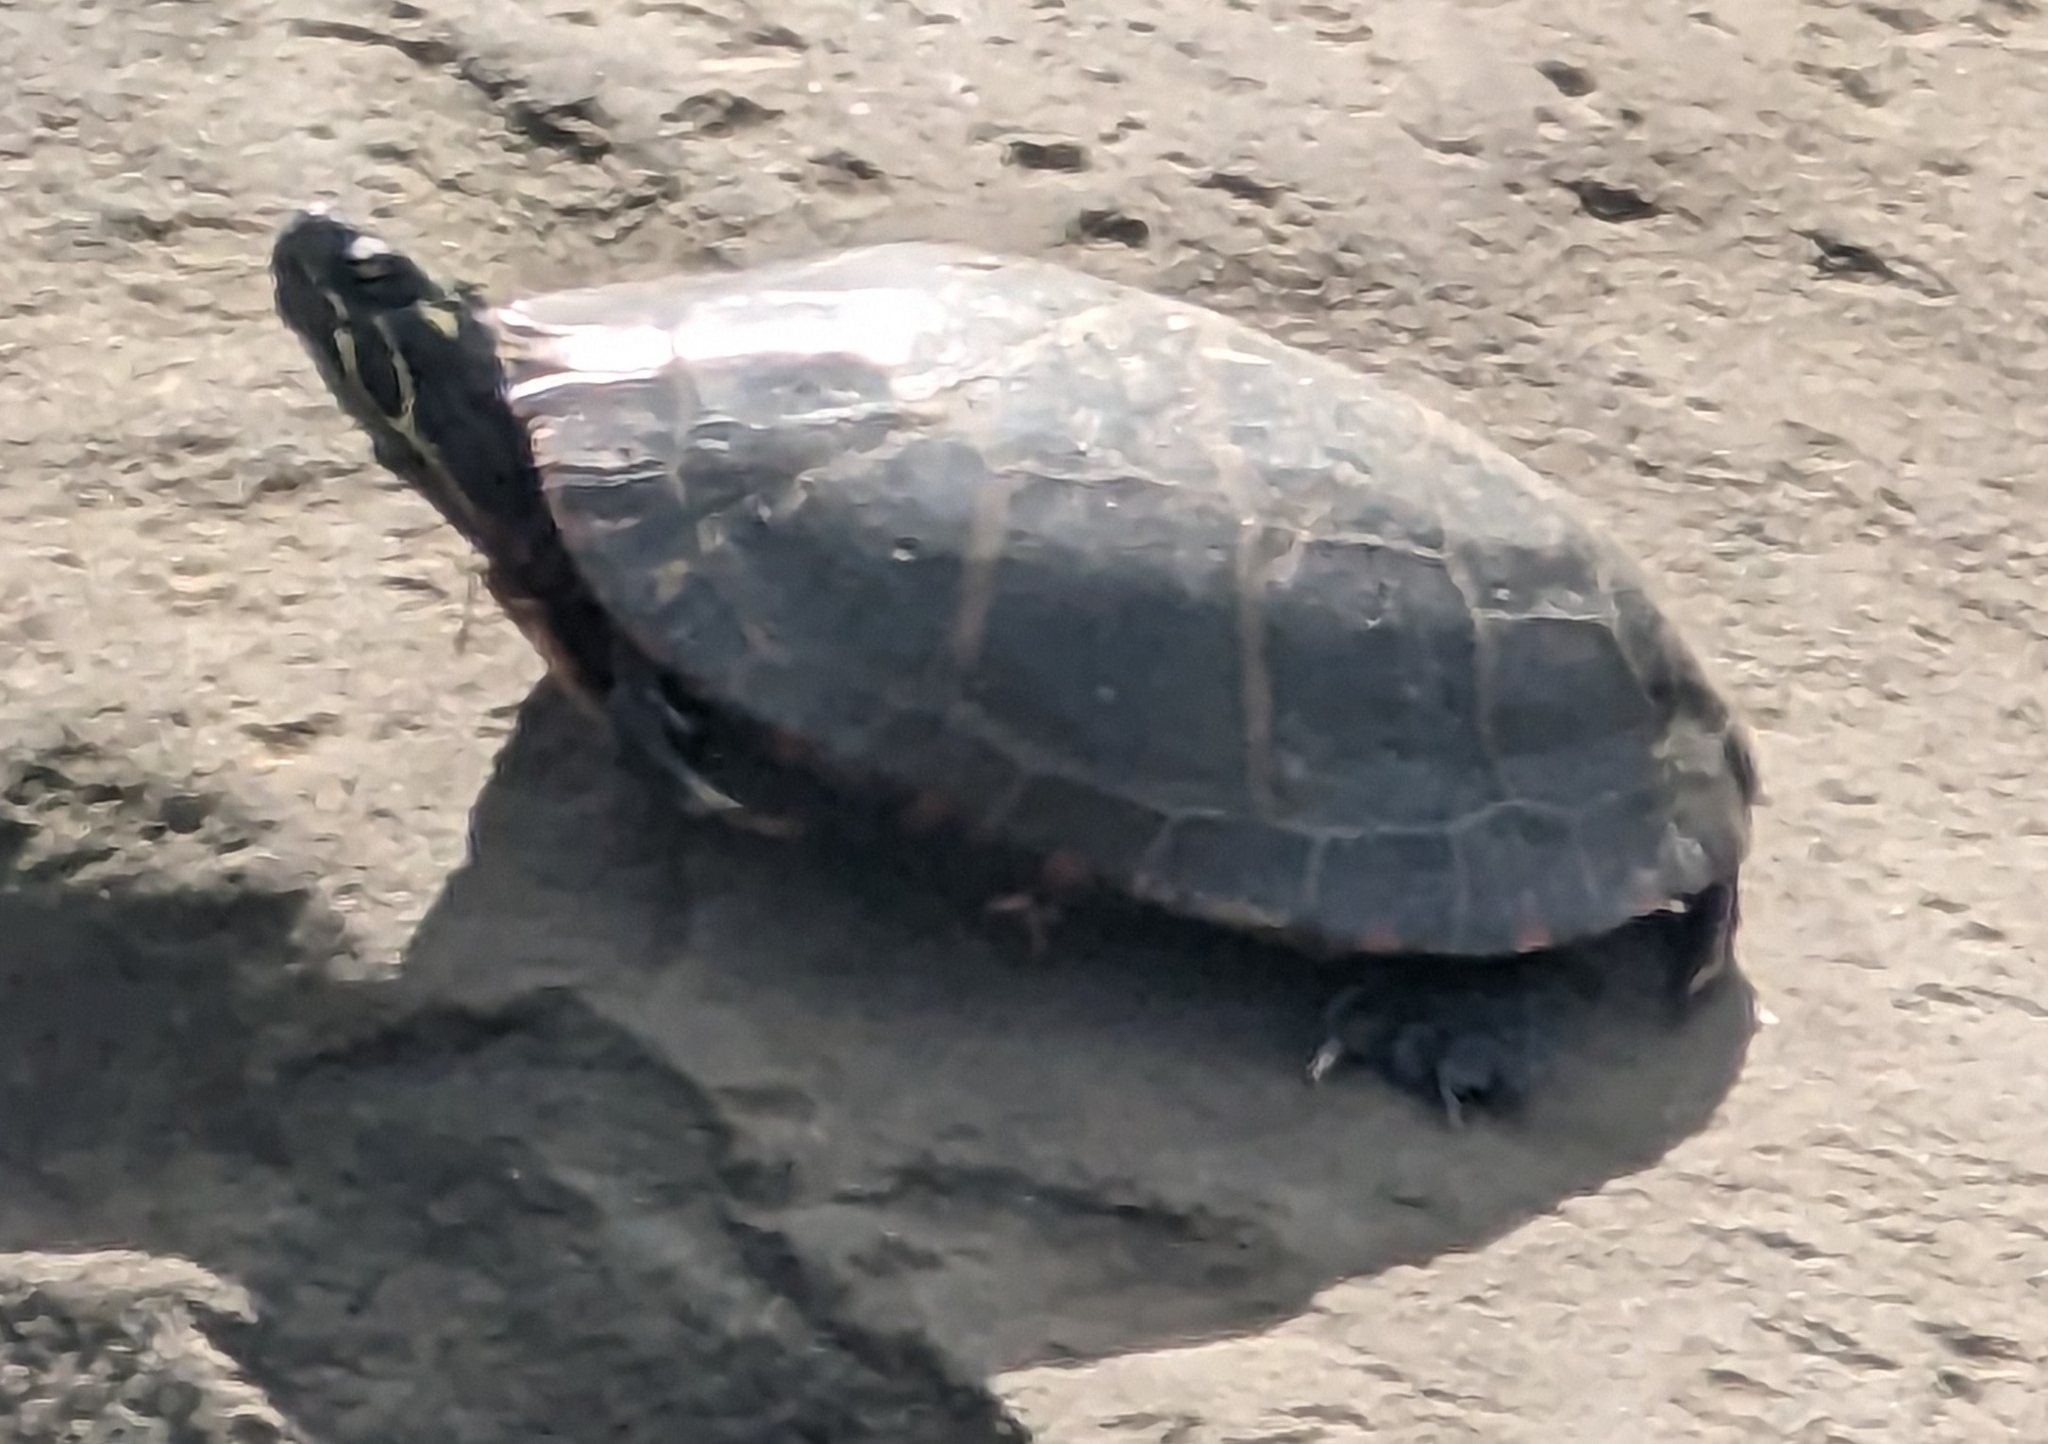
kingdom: Animalia
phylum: Chordata
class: Testudines
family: Emydidae
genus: Chrysemys
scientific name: Chrysemys picta
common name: Painted turtle
